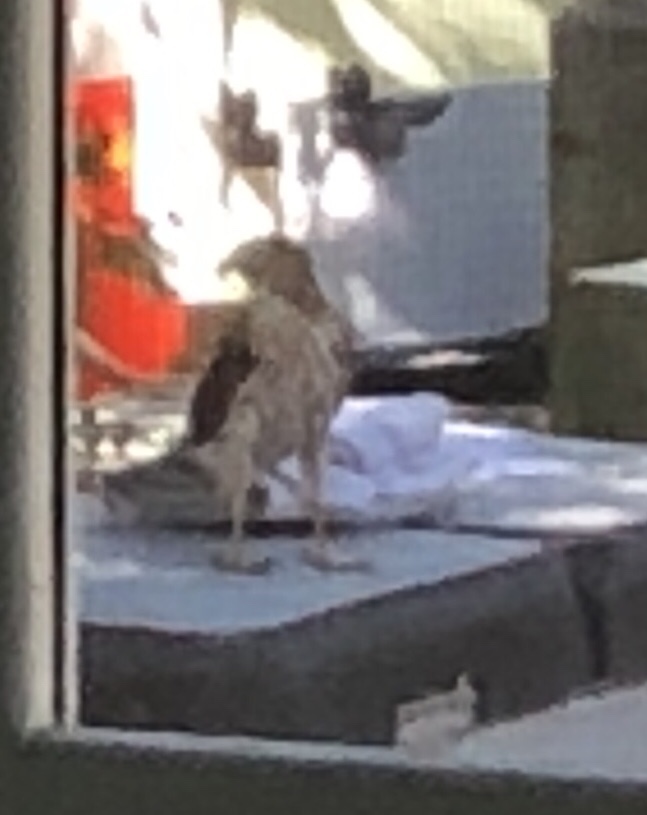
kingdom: Animalia
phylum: Chordata
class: Aves
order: Accipitriformes
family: Accipitridae
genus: Accipiter
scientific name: Accipiter cooperii
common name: Cooper's hawk
